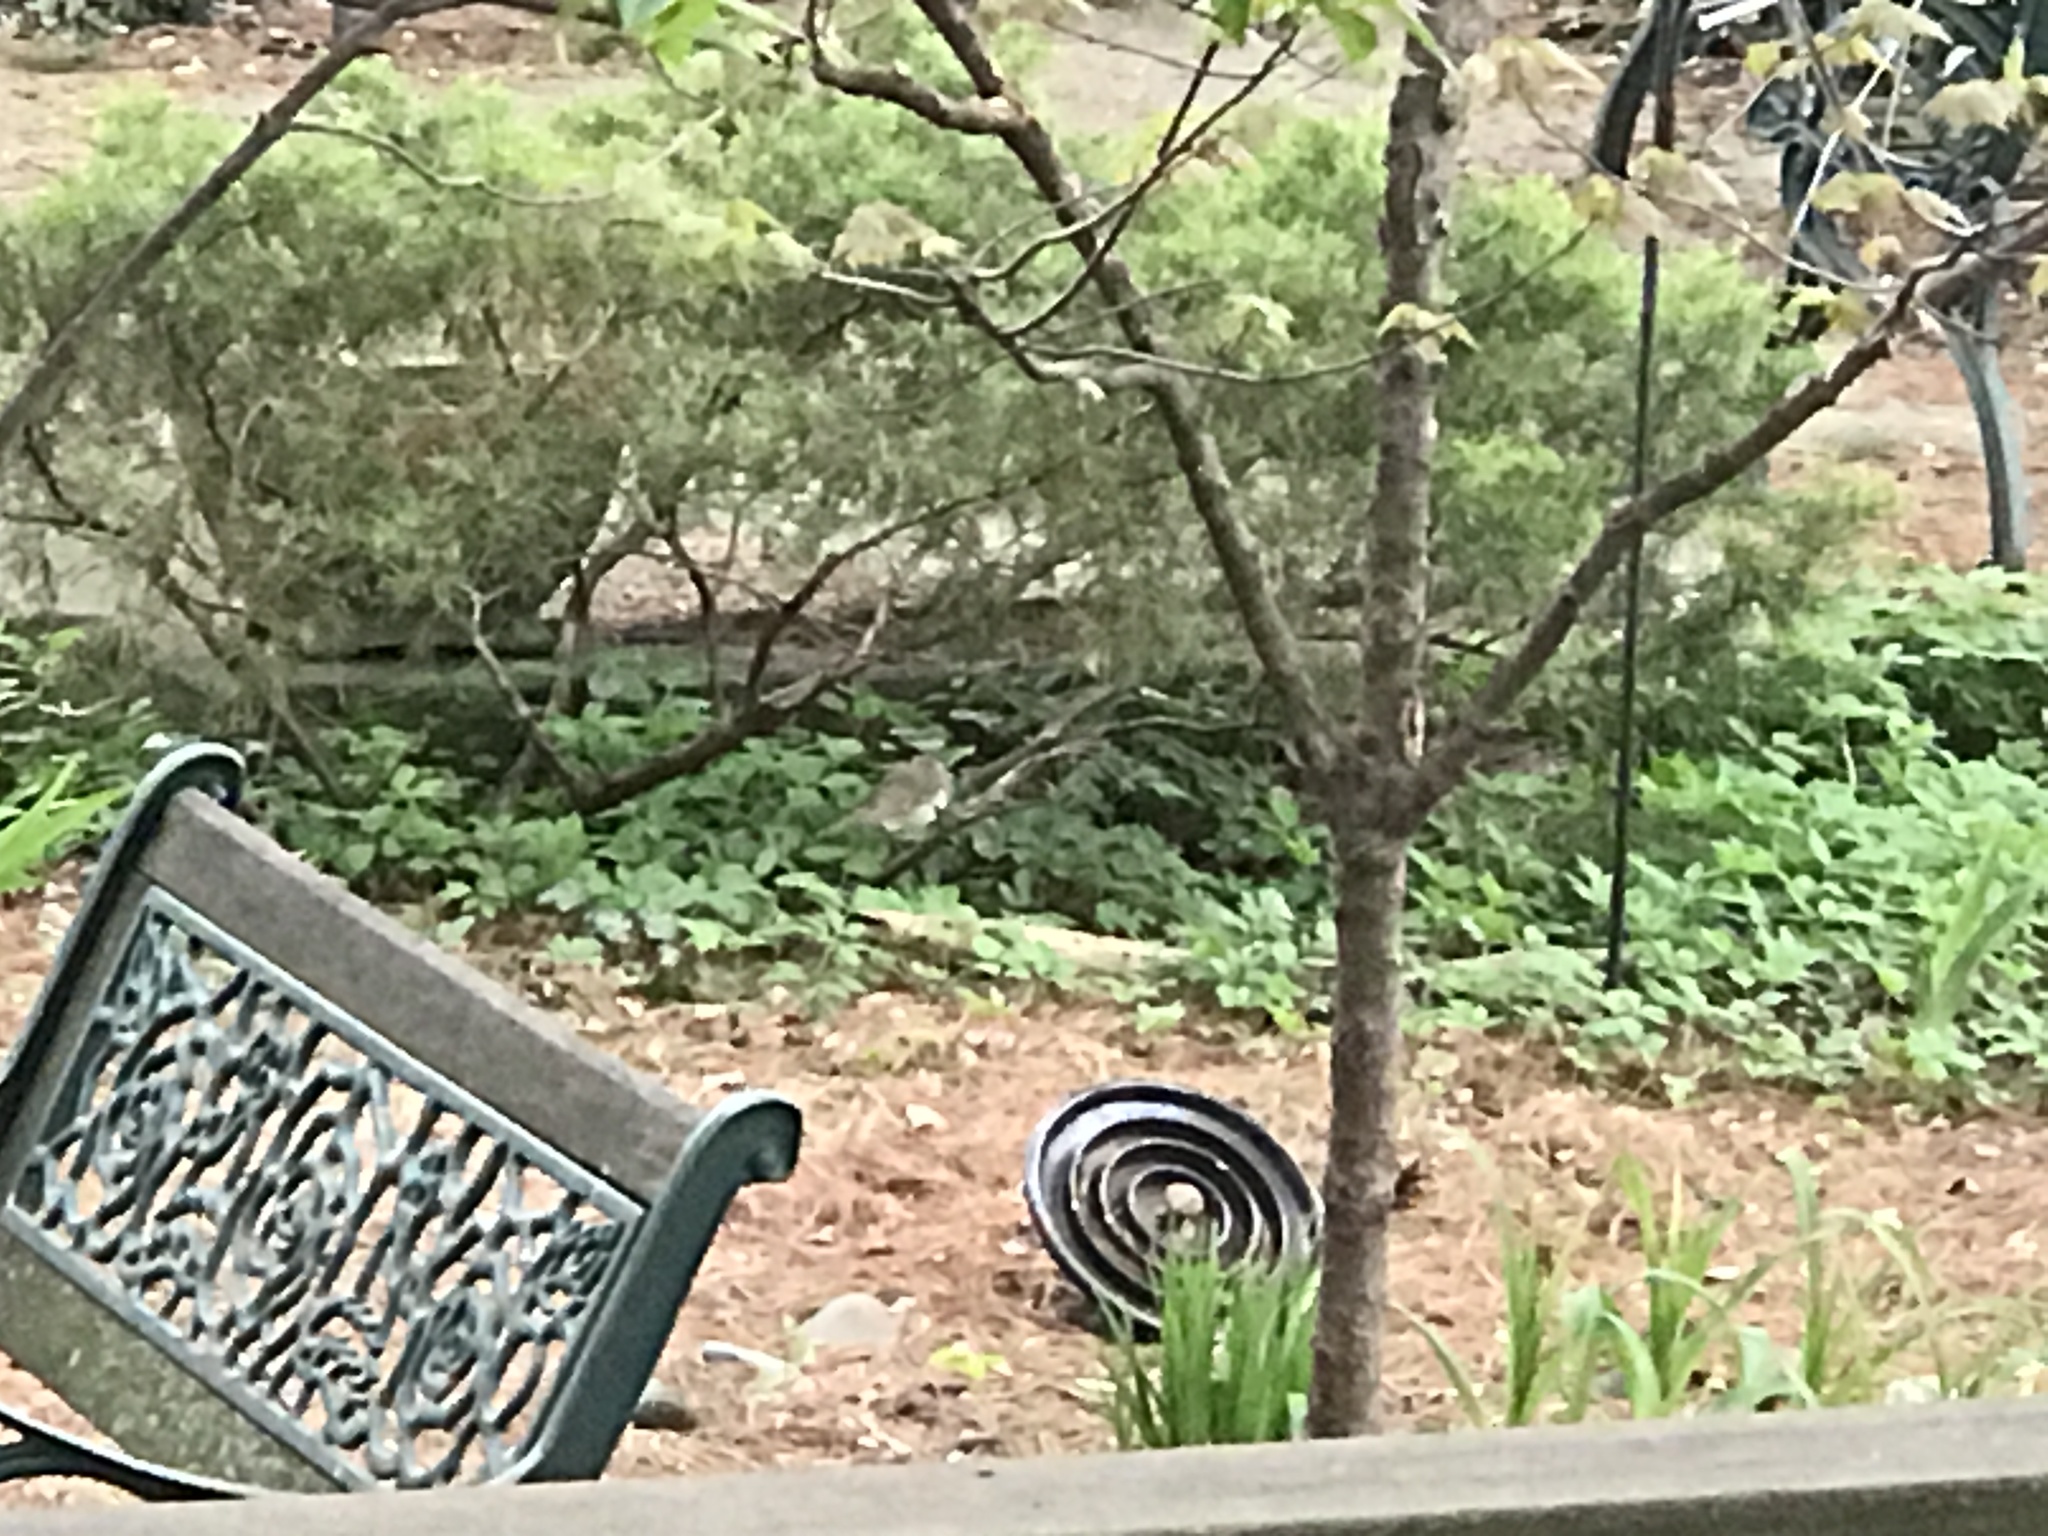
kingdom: Animalia
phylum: Chordata
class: Aves
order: Passeriformes
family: Turdidae
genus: Catharus
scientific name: Catharus guttatus
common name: Hermit thrush
